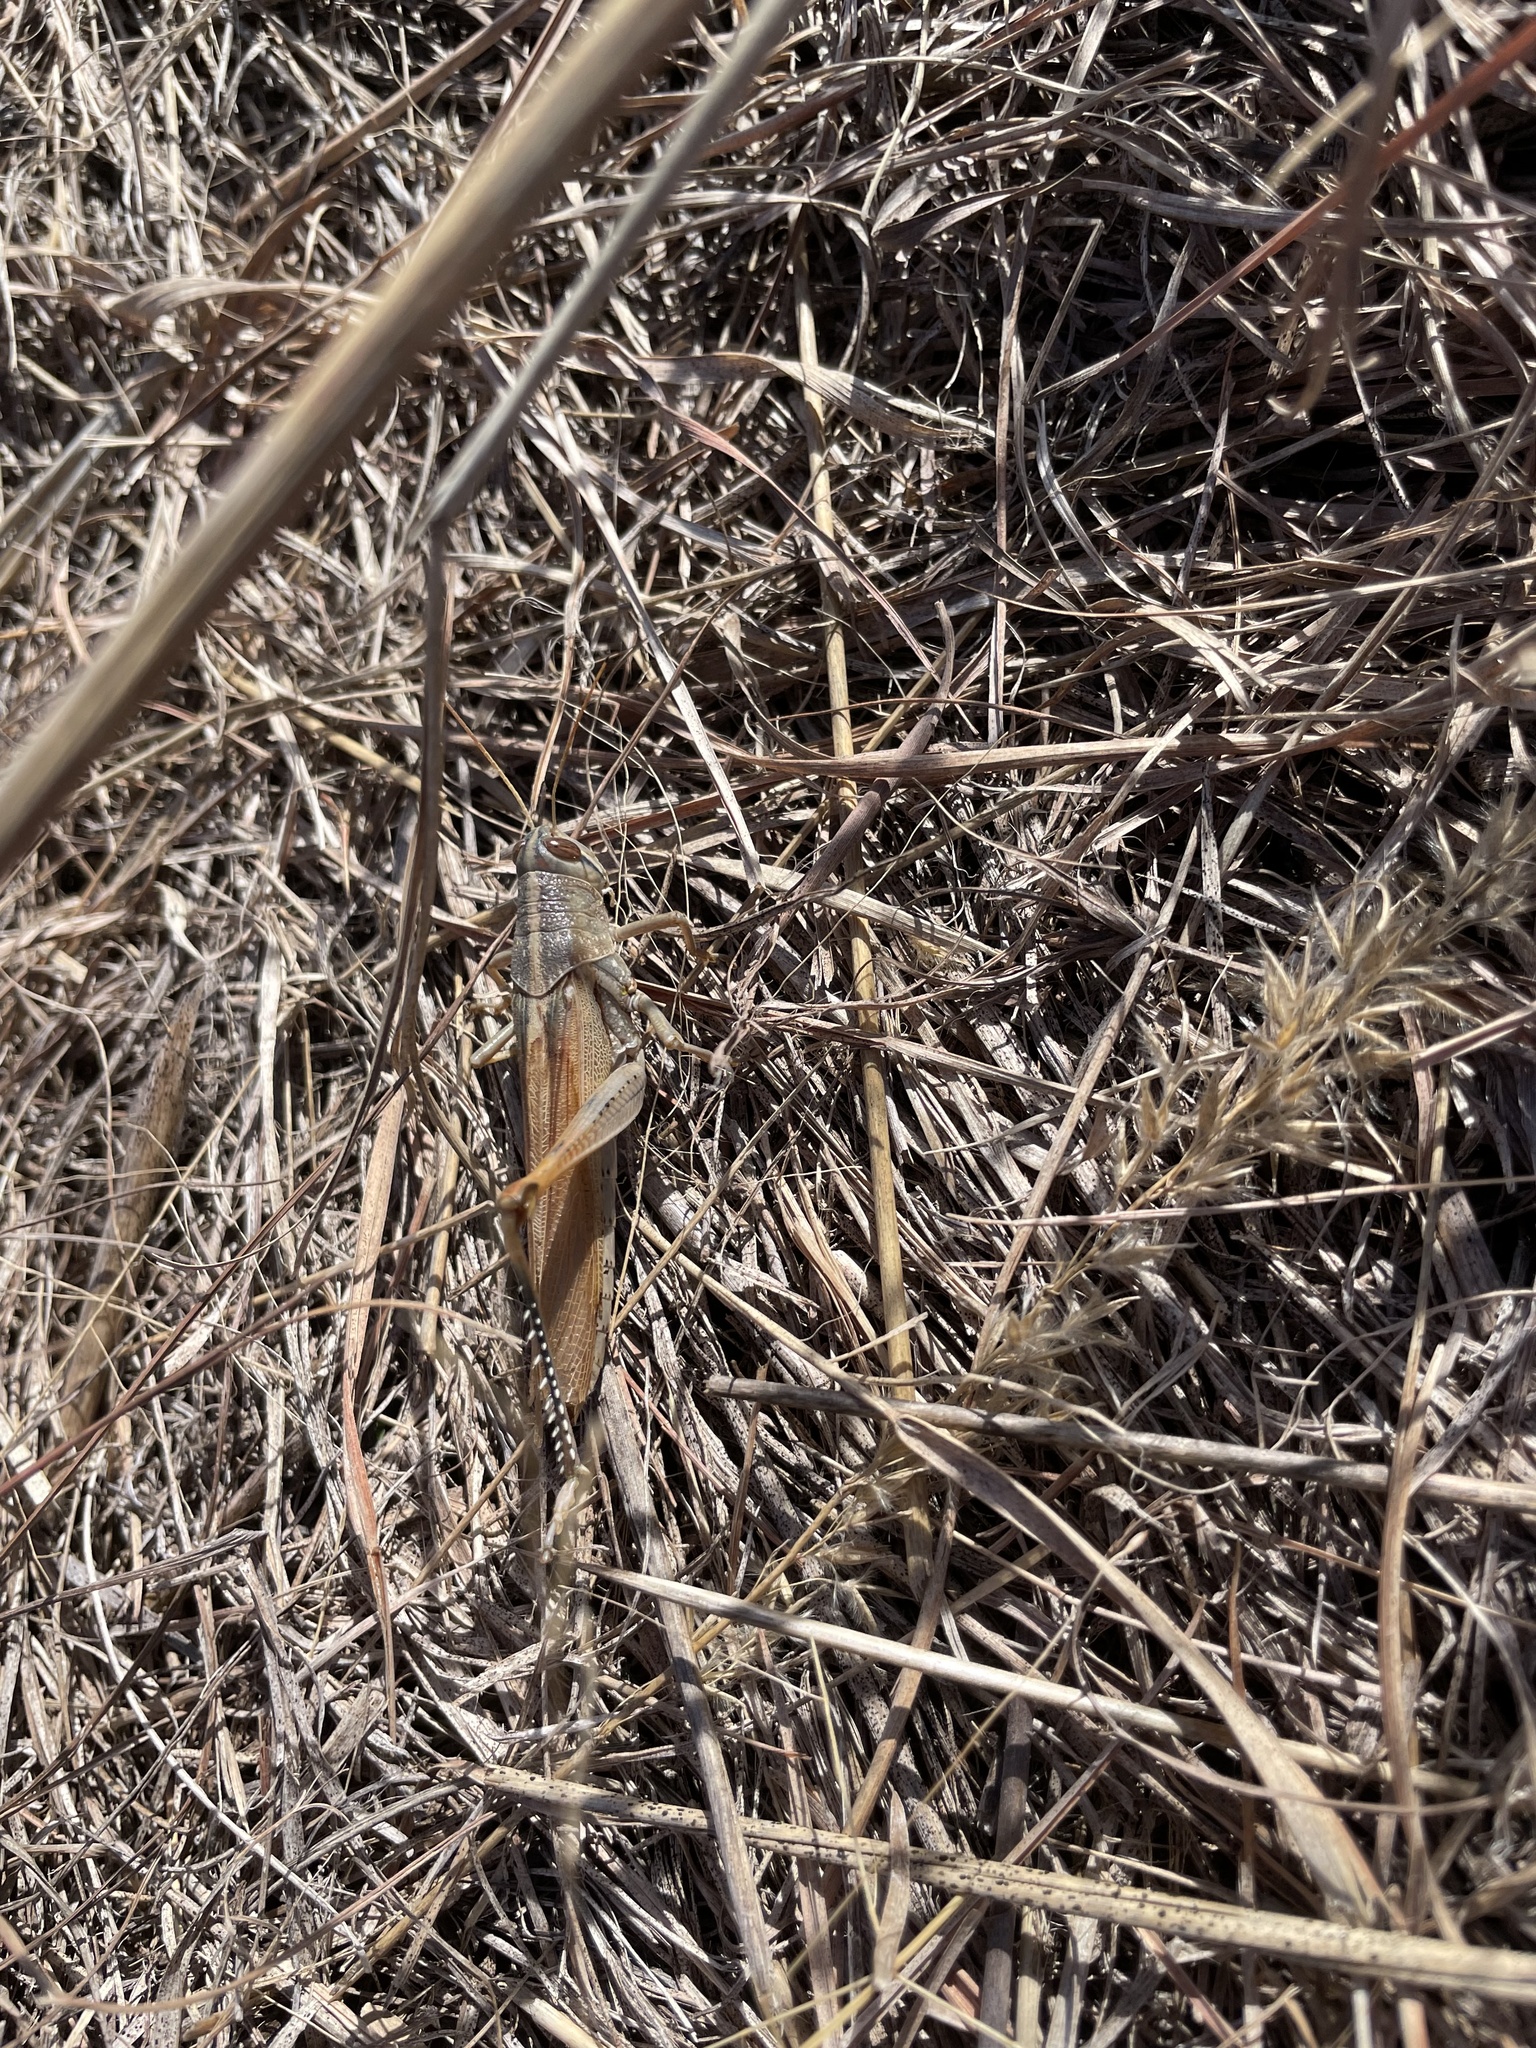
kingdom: Animalia
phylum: Arthropoda
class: Insecta
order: Orthoptera
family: Acrididae
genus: Schistocerca
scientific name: Schistocerca lineata
